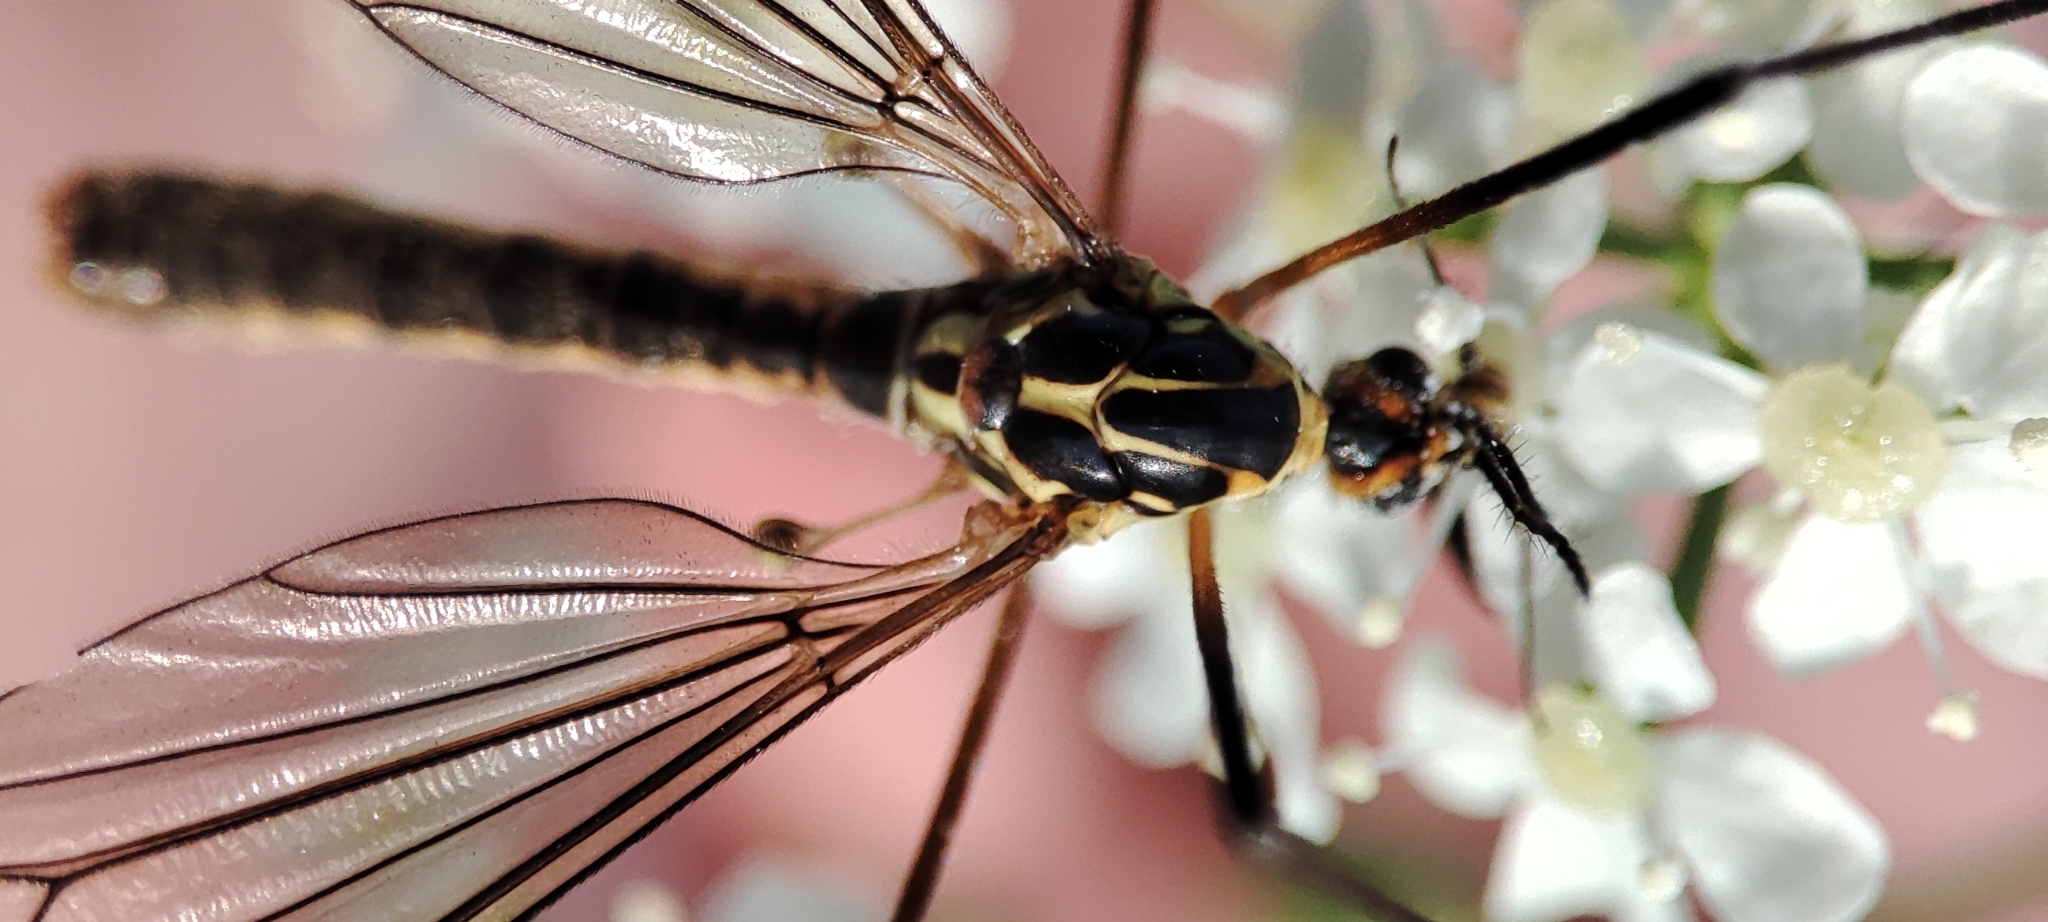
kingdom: Animalia
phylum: Arthropoda
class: Insecta
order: Diptera
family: Tipulidae
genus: Nephrotoma
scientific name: Nephrotoma appendiculata
